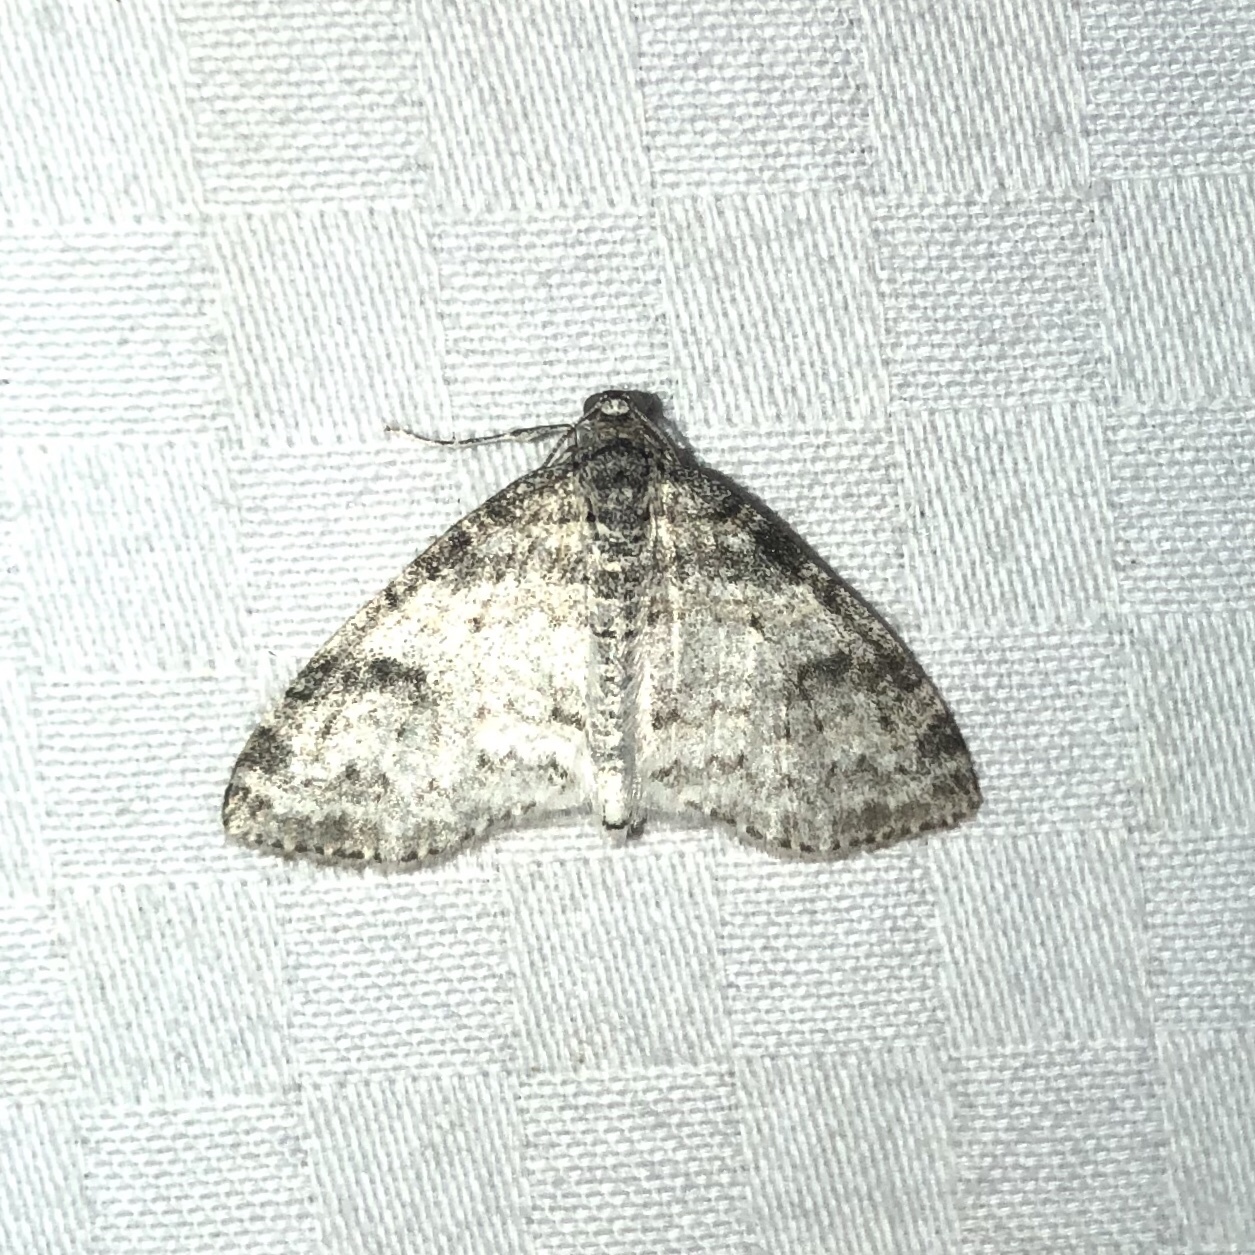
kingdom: Animalia
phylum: Arthropoda
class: Insecta
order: Lepidoptera
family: Geometridae
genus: Lobophora
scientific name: Lobophora nivigerata
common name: Powdered bigwing
